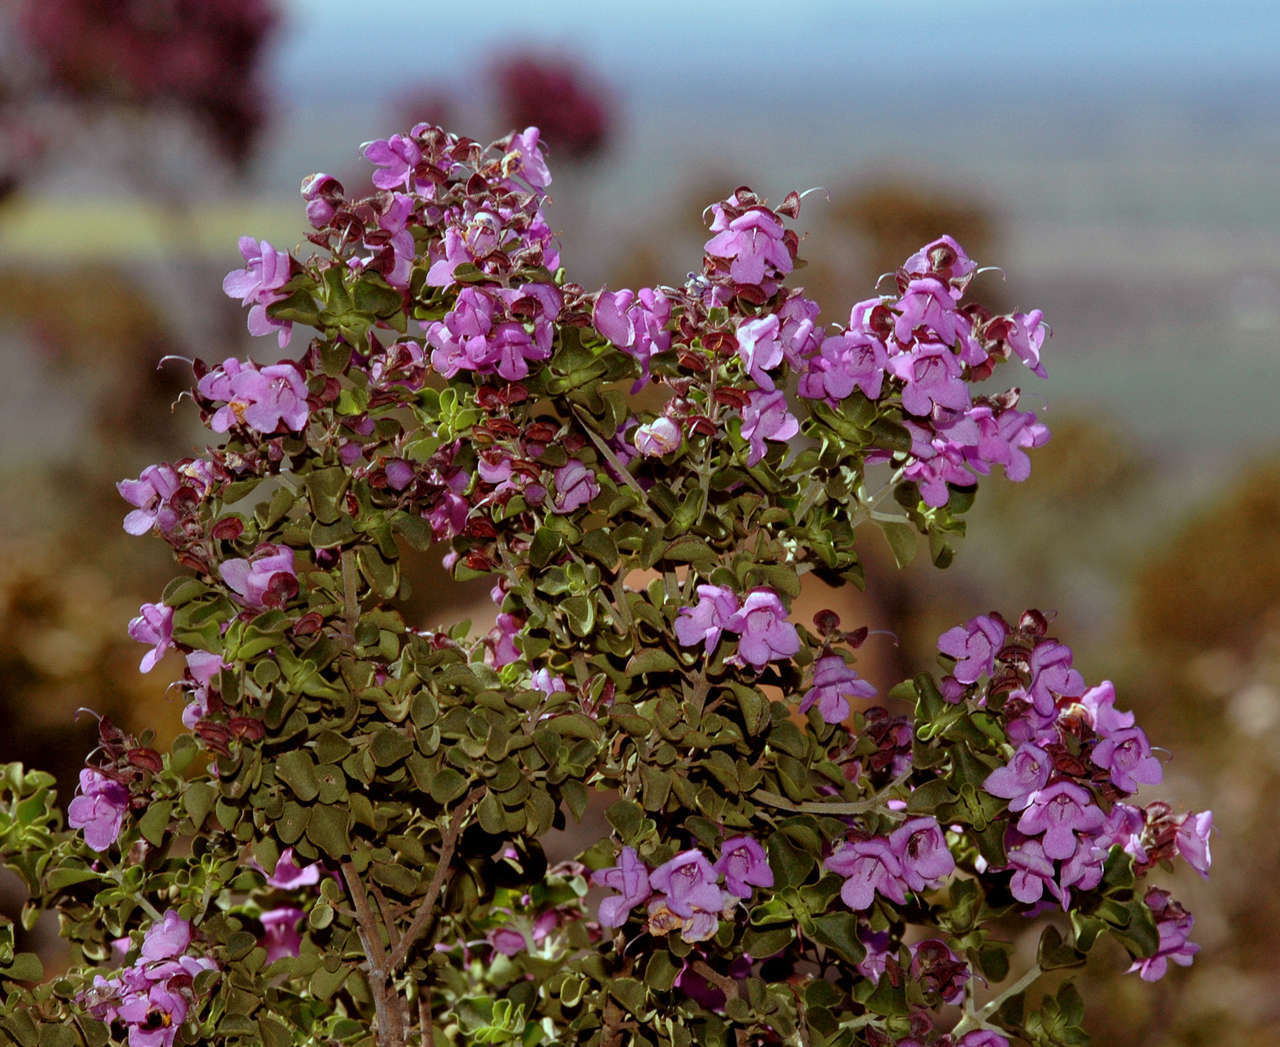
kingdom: Plantae
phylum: Tracheophyta
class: Magnoliopsida
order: Lamiales
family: Lamiaceae
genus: Prostanthera
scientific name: Prostanthera rotundifolia
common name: Round-leaf mintbush
